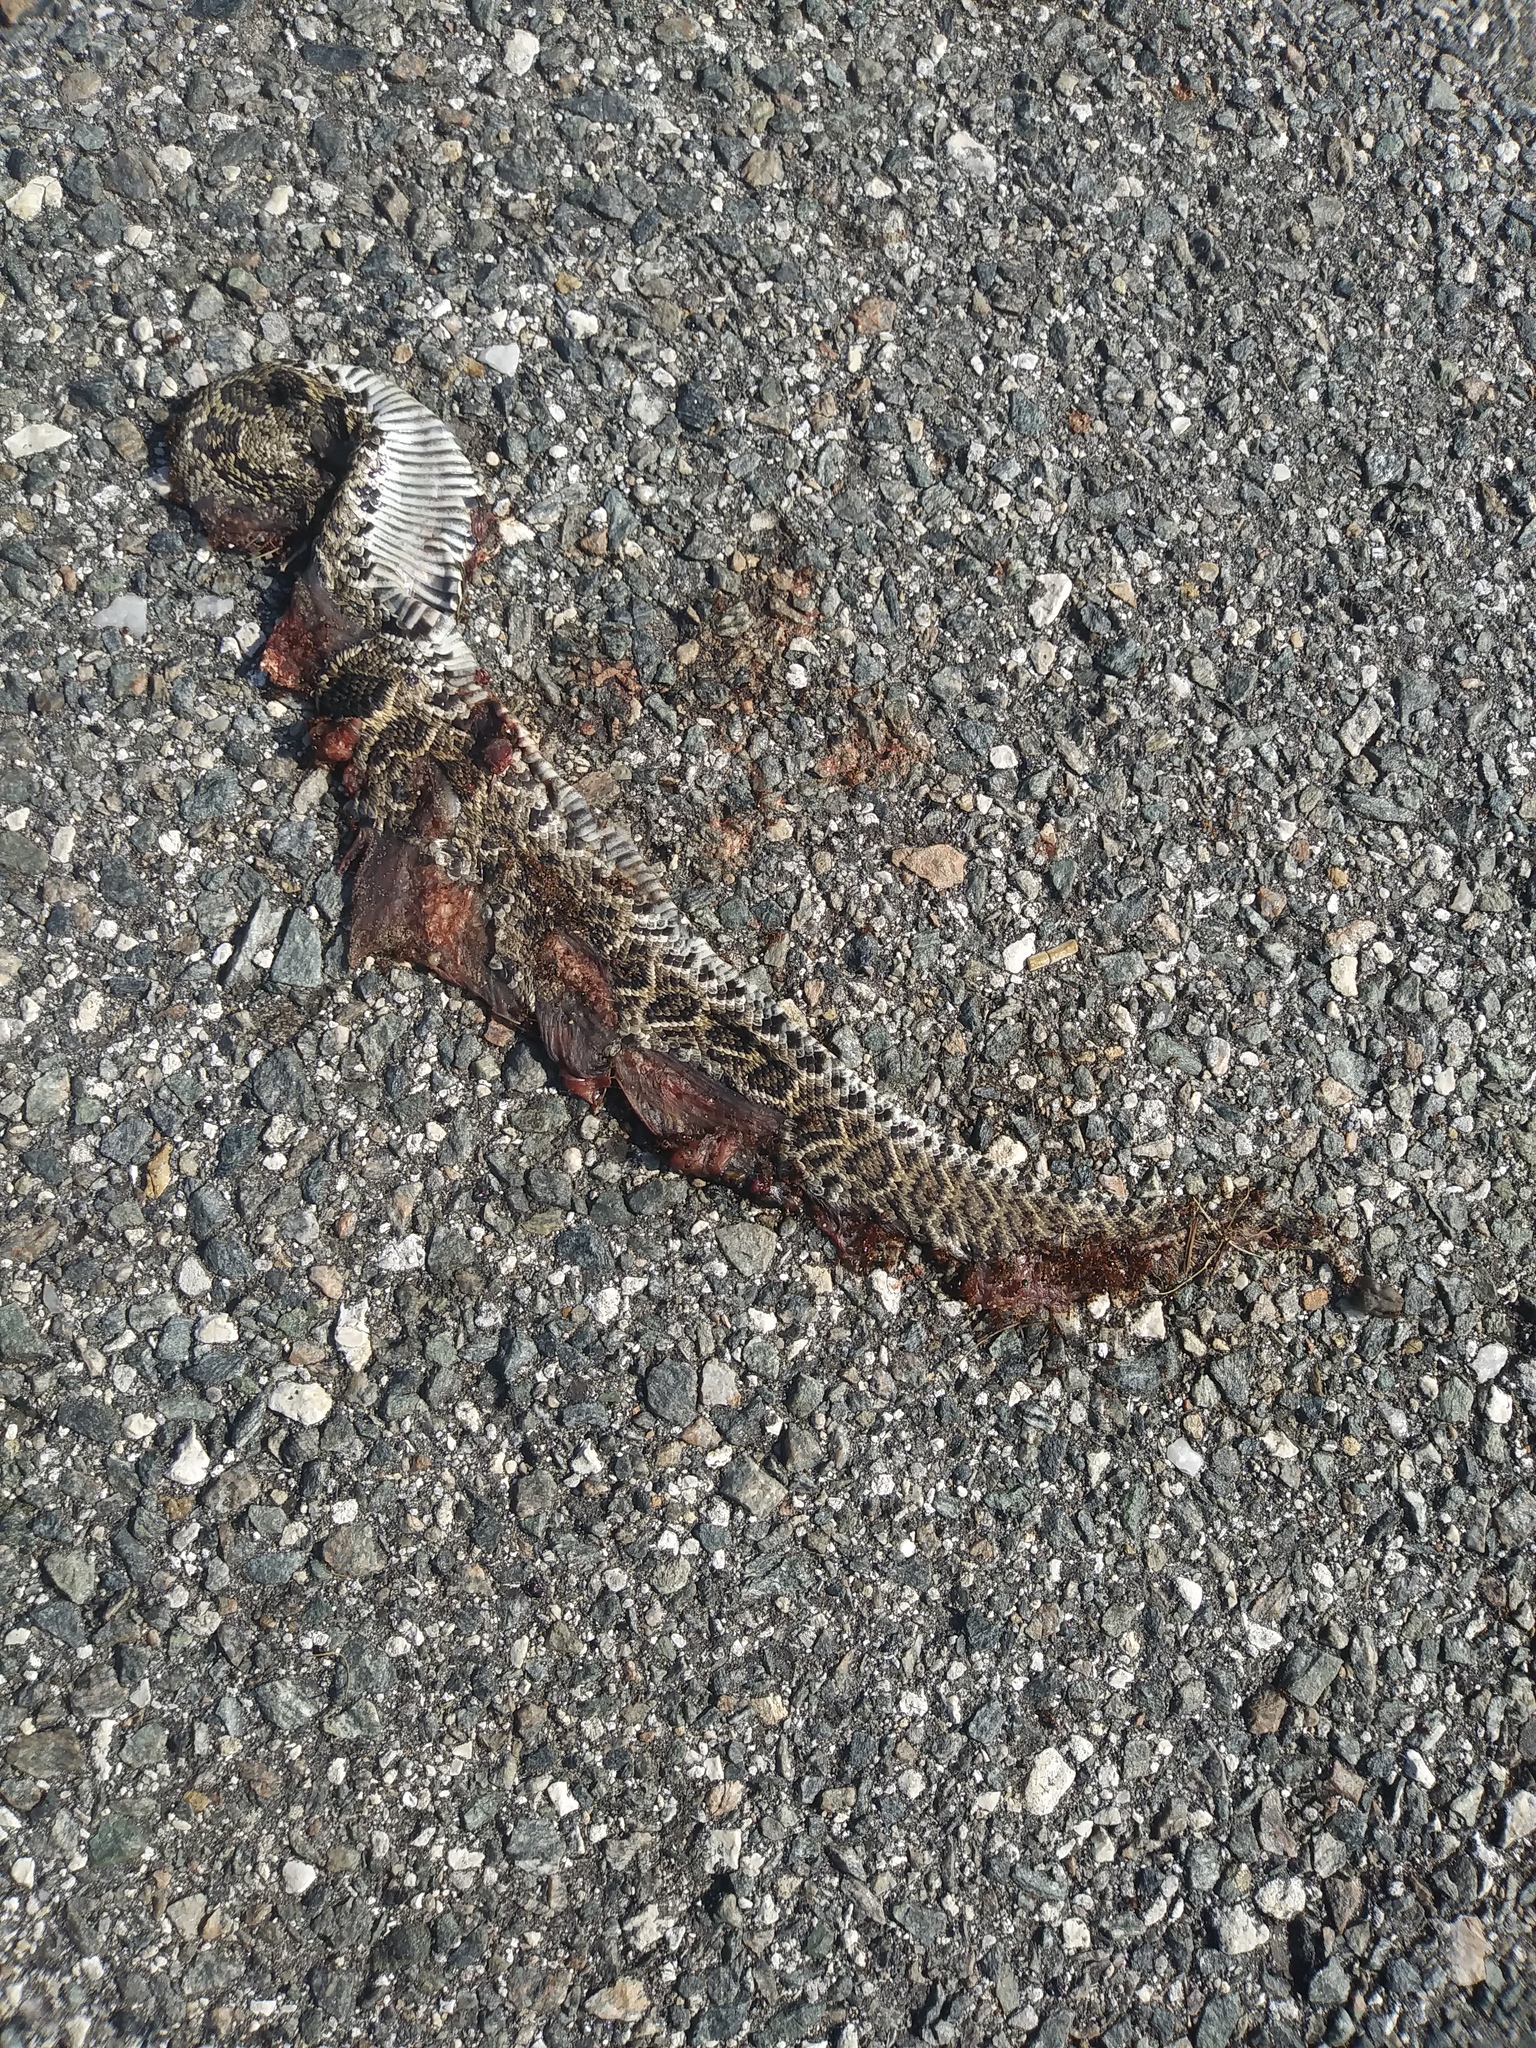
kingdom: Animalia
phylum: Chordata
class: Squamata
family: Viperidae
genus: Crotalus
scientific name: Crotalus adamanteus
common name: Eastern diamondback rattlesnake
